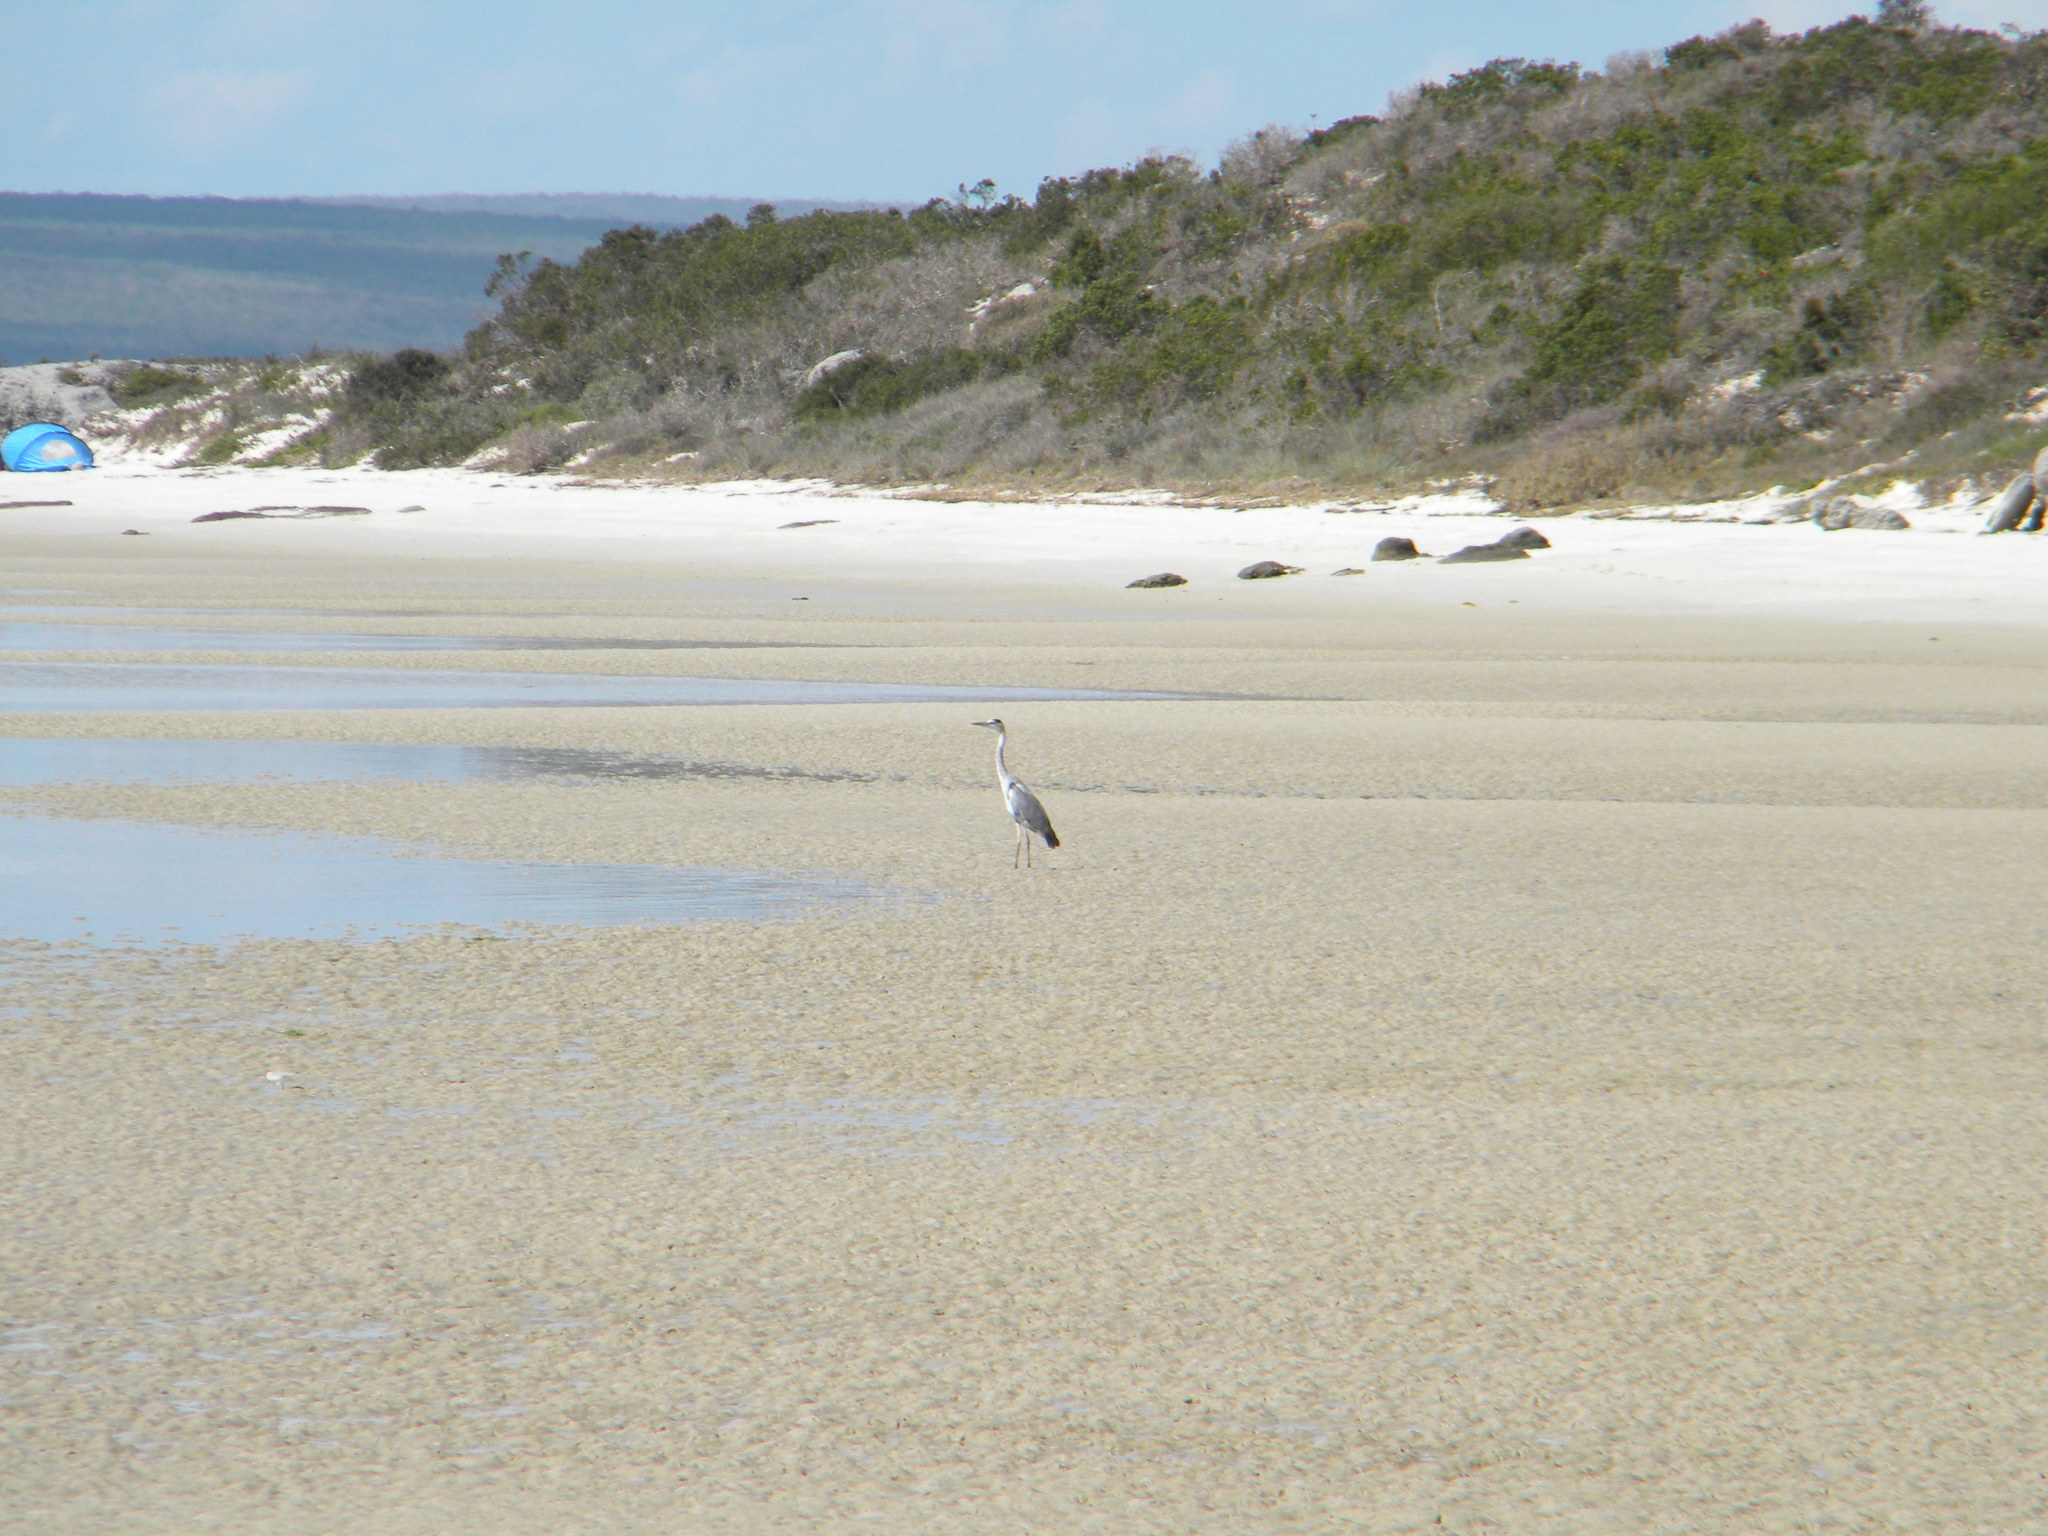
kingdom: Animalia
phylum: Chordata
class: Aves
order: Pelecaniformes
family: Ardeidae
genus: Ardea
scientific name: Ardea cinerea
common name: Grey heron
